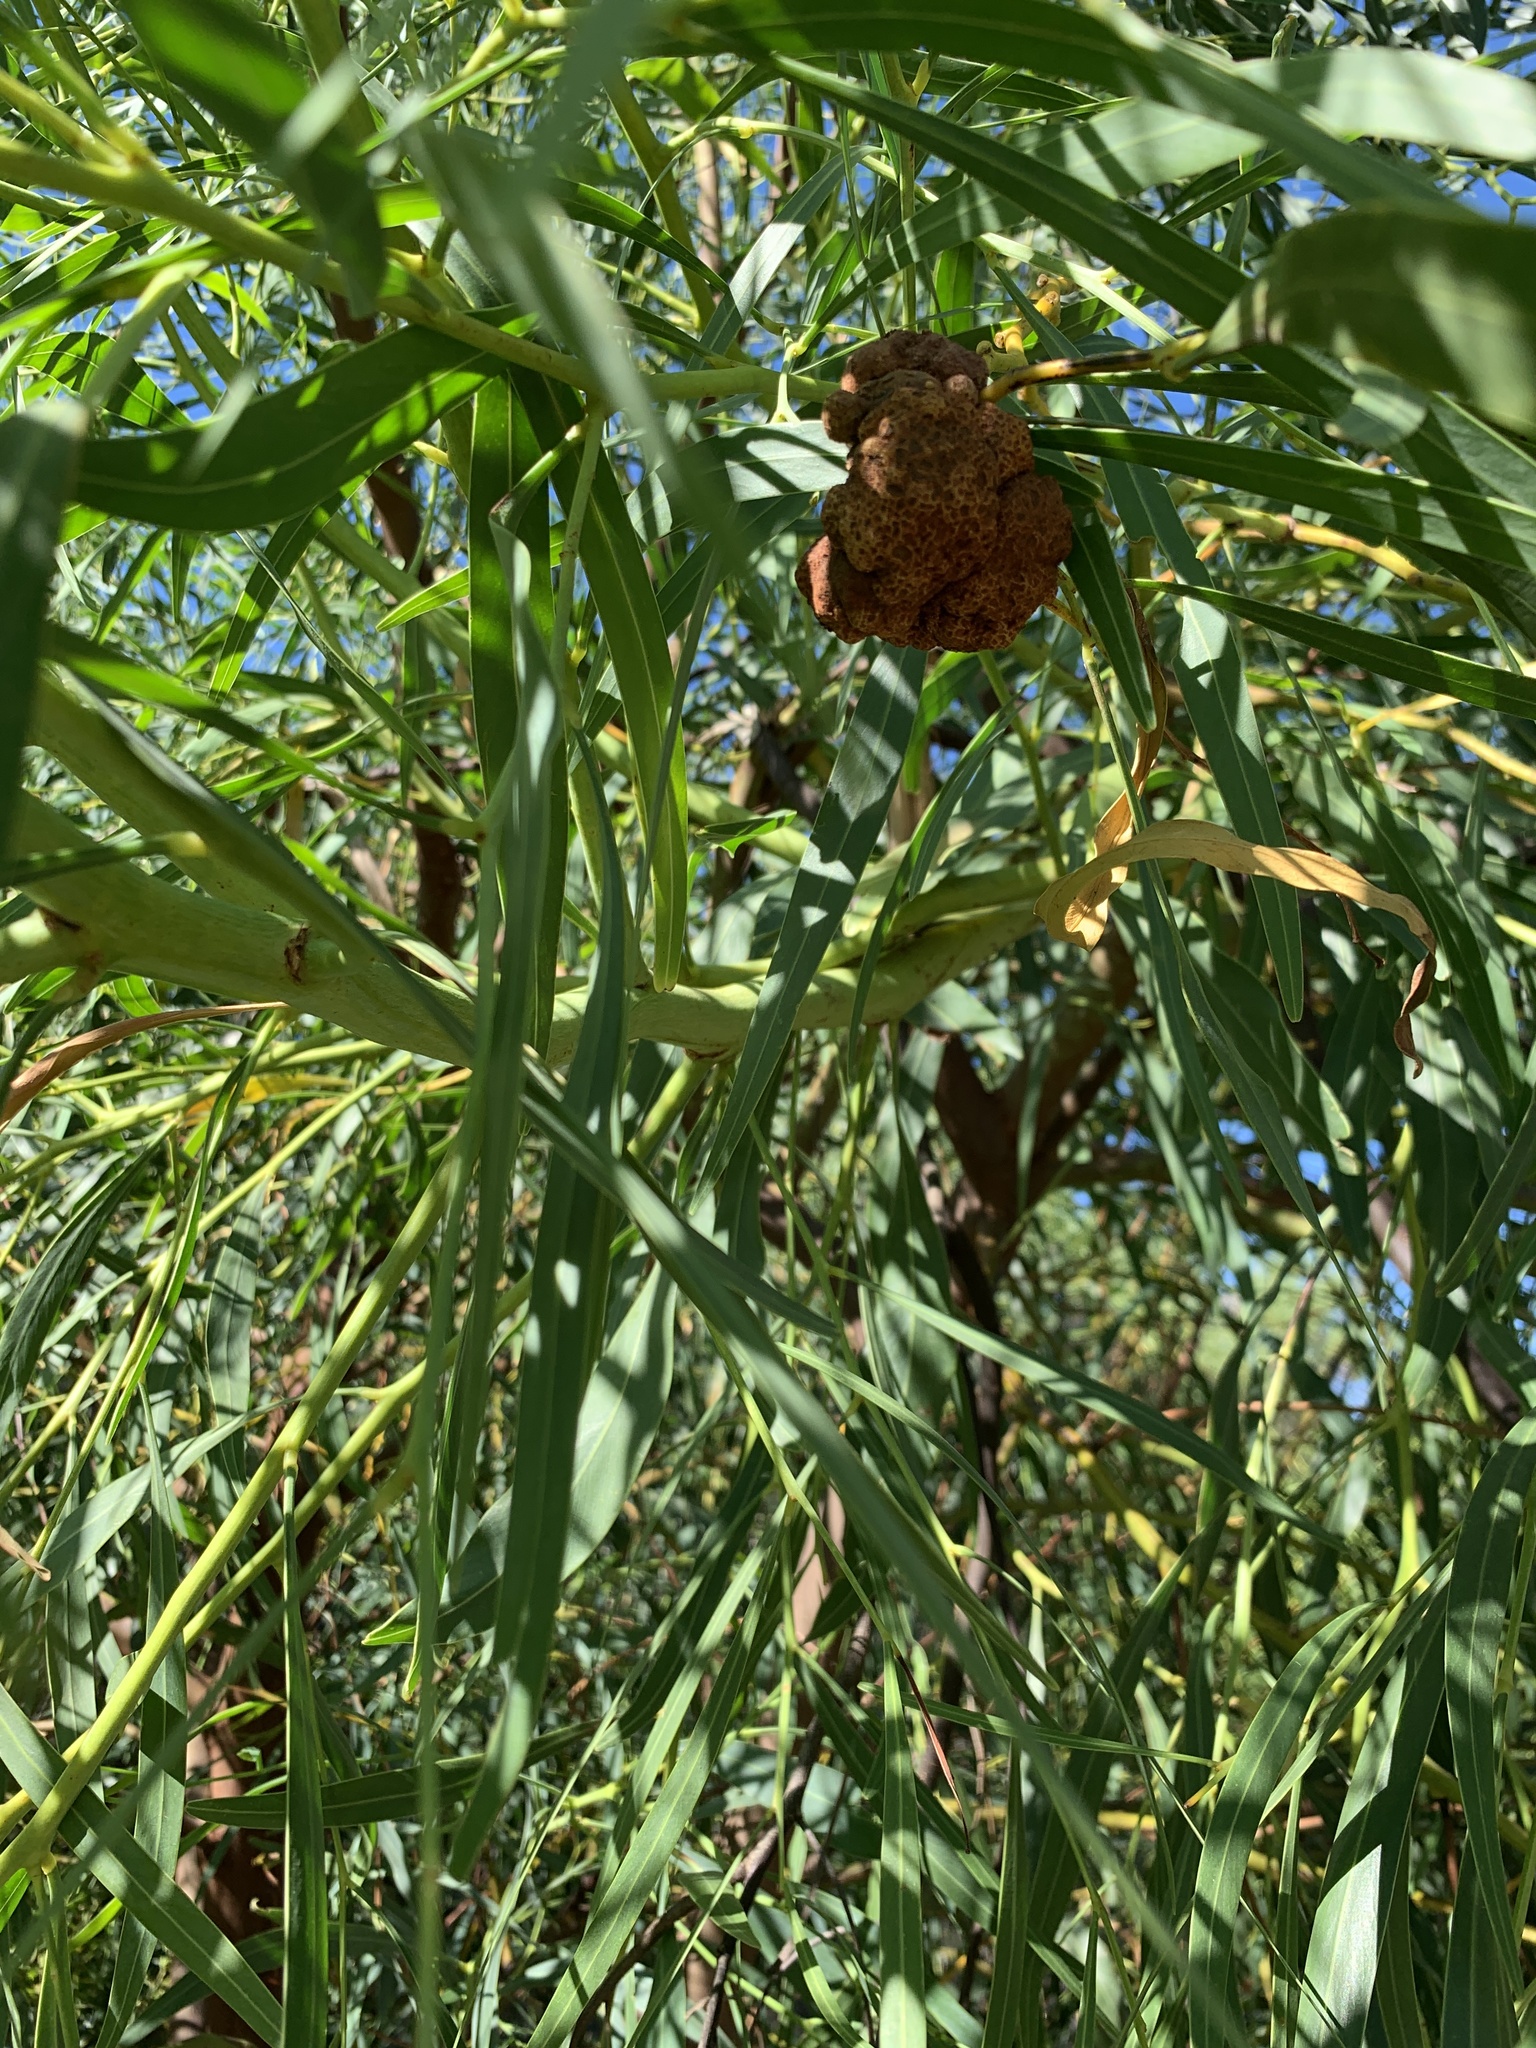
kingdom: Fungi
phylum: Basidiomycota
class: Pucciniomycetes
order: Pucciniales
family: Uromycladiaceae
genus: Uromycladium
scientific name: Uromycladium morrisii
